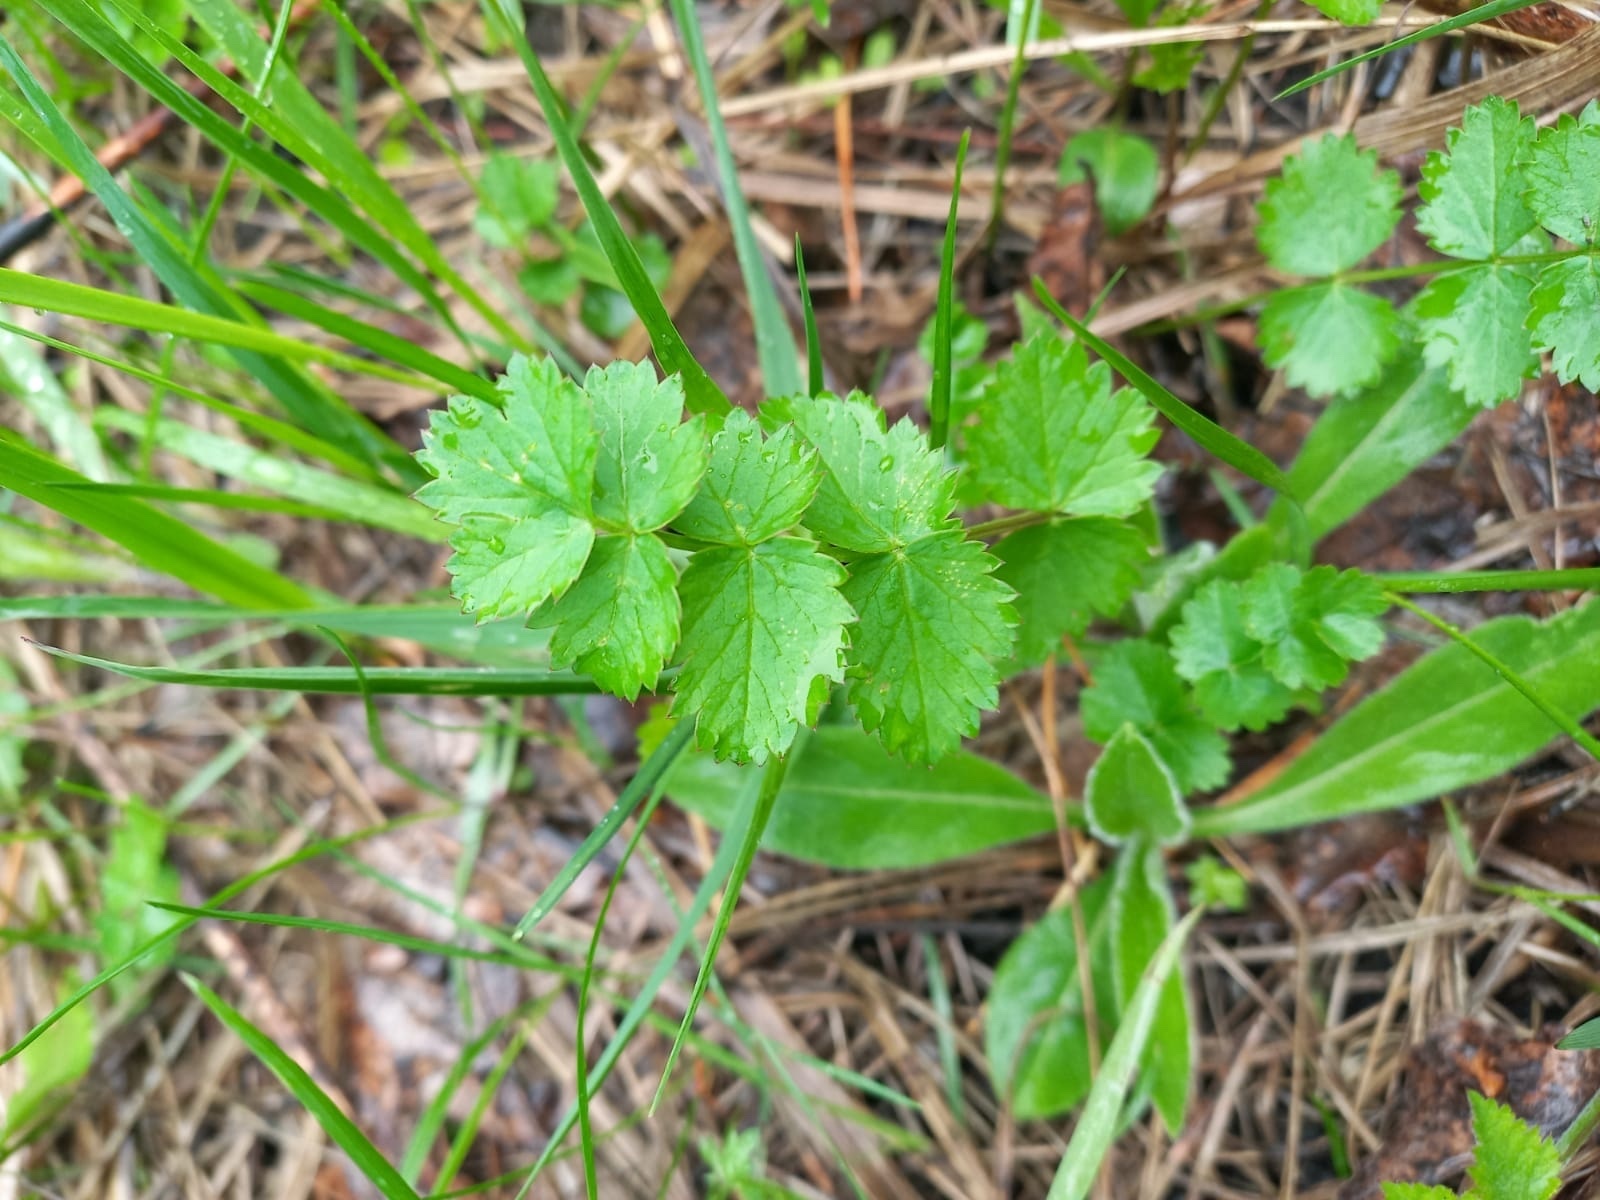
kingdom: Plantae
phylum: Tracheophyta
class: Magnoliopsida
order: Apiales
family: Apiaceae
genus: Pimpinella
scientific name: Pimpinella saxifraga
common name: Burnet-saxifrage
